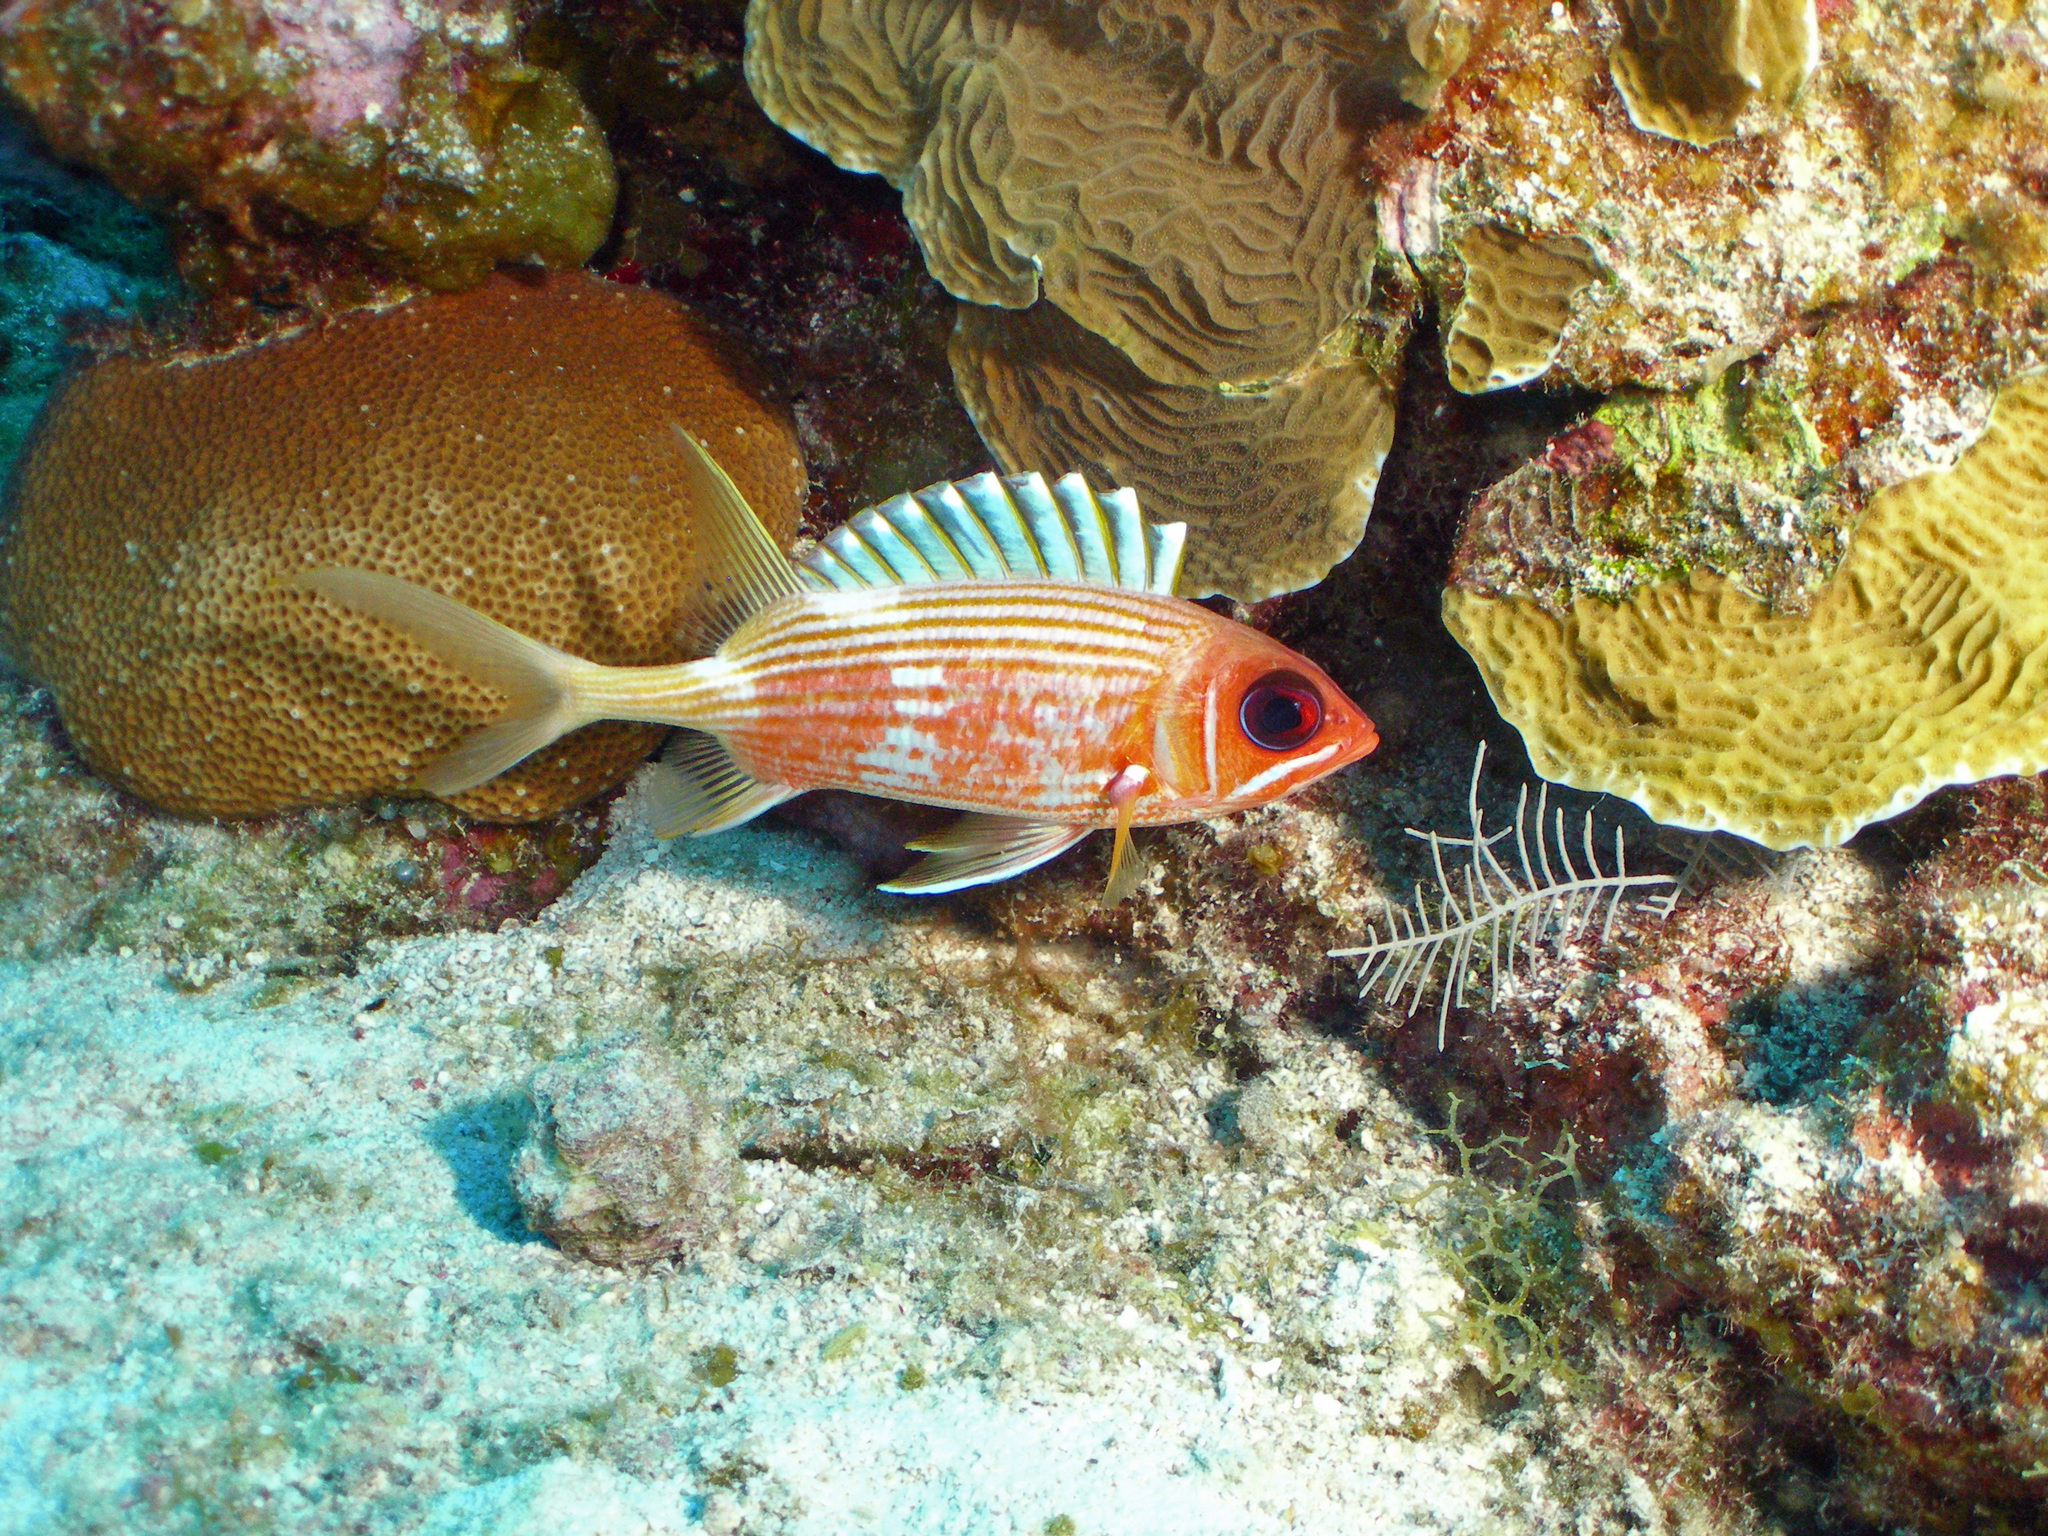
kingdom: Animalia
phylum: Chordata
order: Beryciformes
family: Holocentridae
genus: Holocentrus
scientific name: Holocentrus rufus
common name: Longspine squirrelfish
